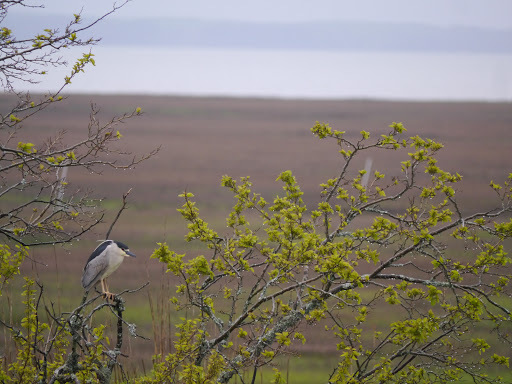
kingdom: Animalia
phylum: Chordata
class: Aves
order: Pelecaniformes
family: Ardeidae
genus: Nycticorax
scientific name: Nycticorax nycticorax
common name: Black-crowned night heron
